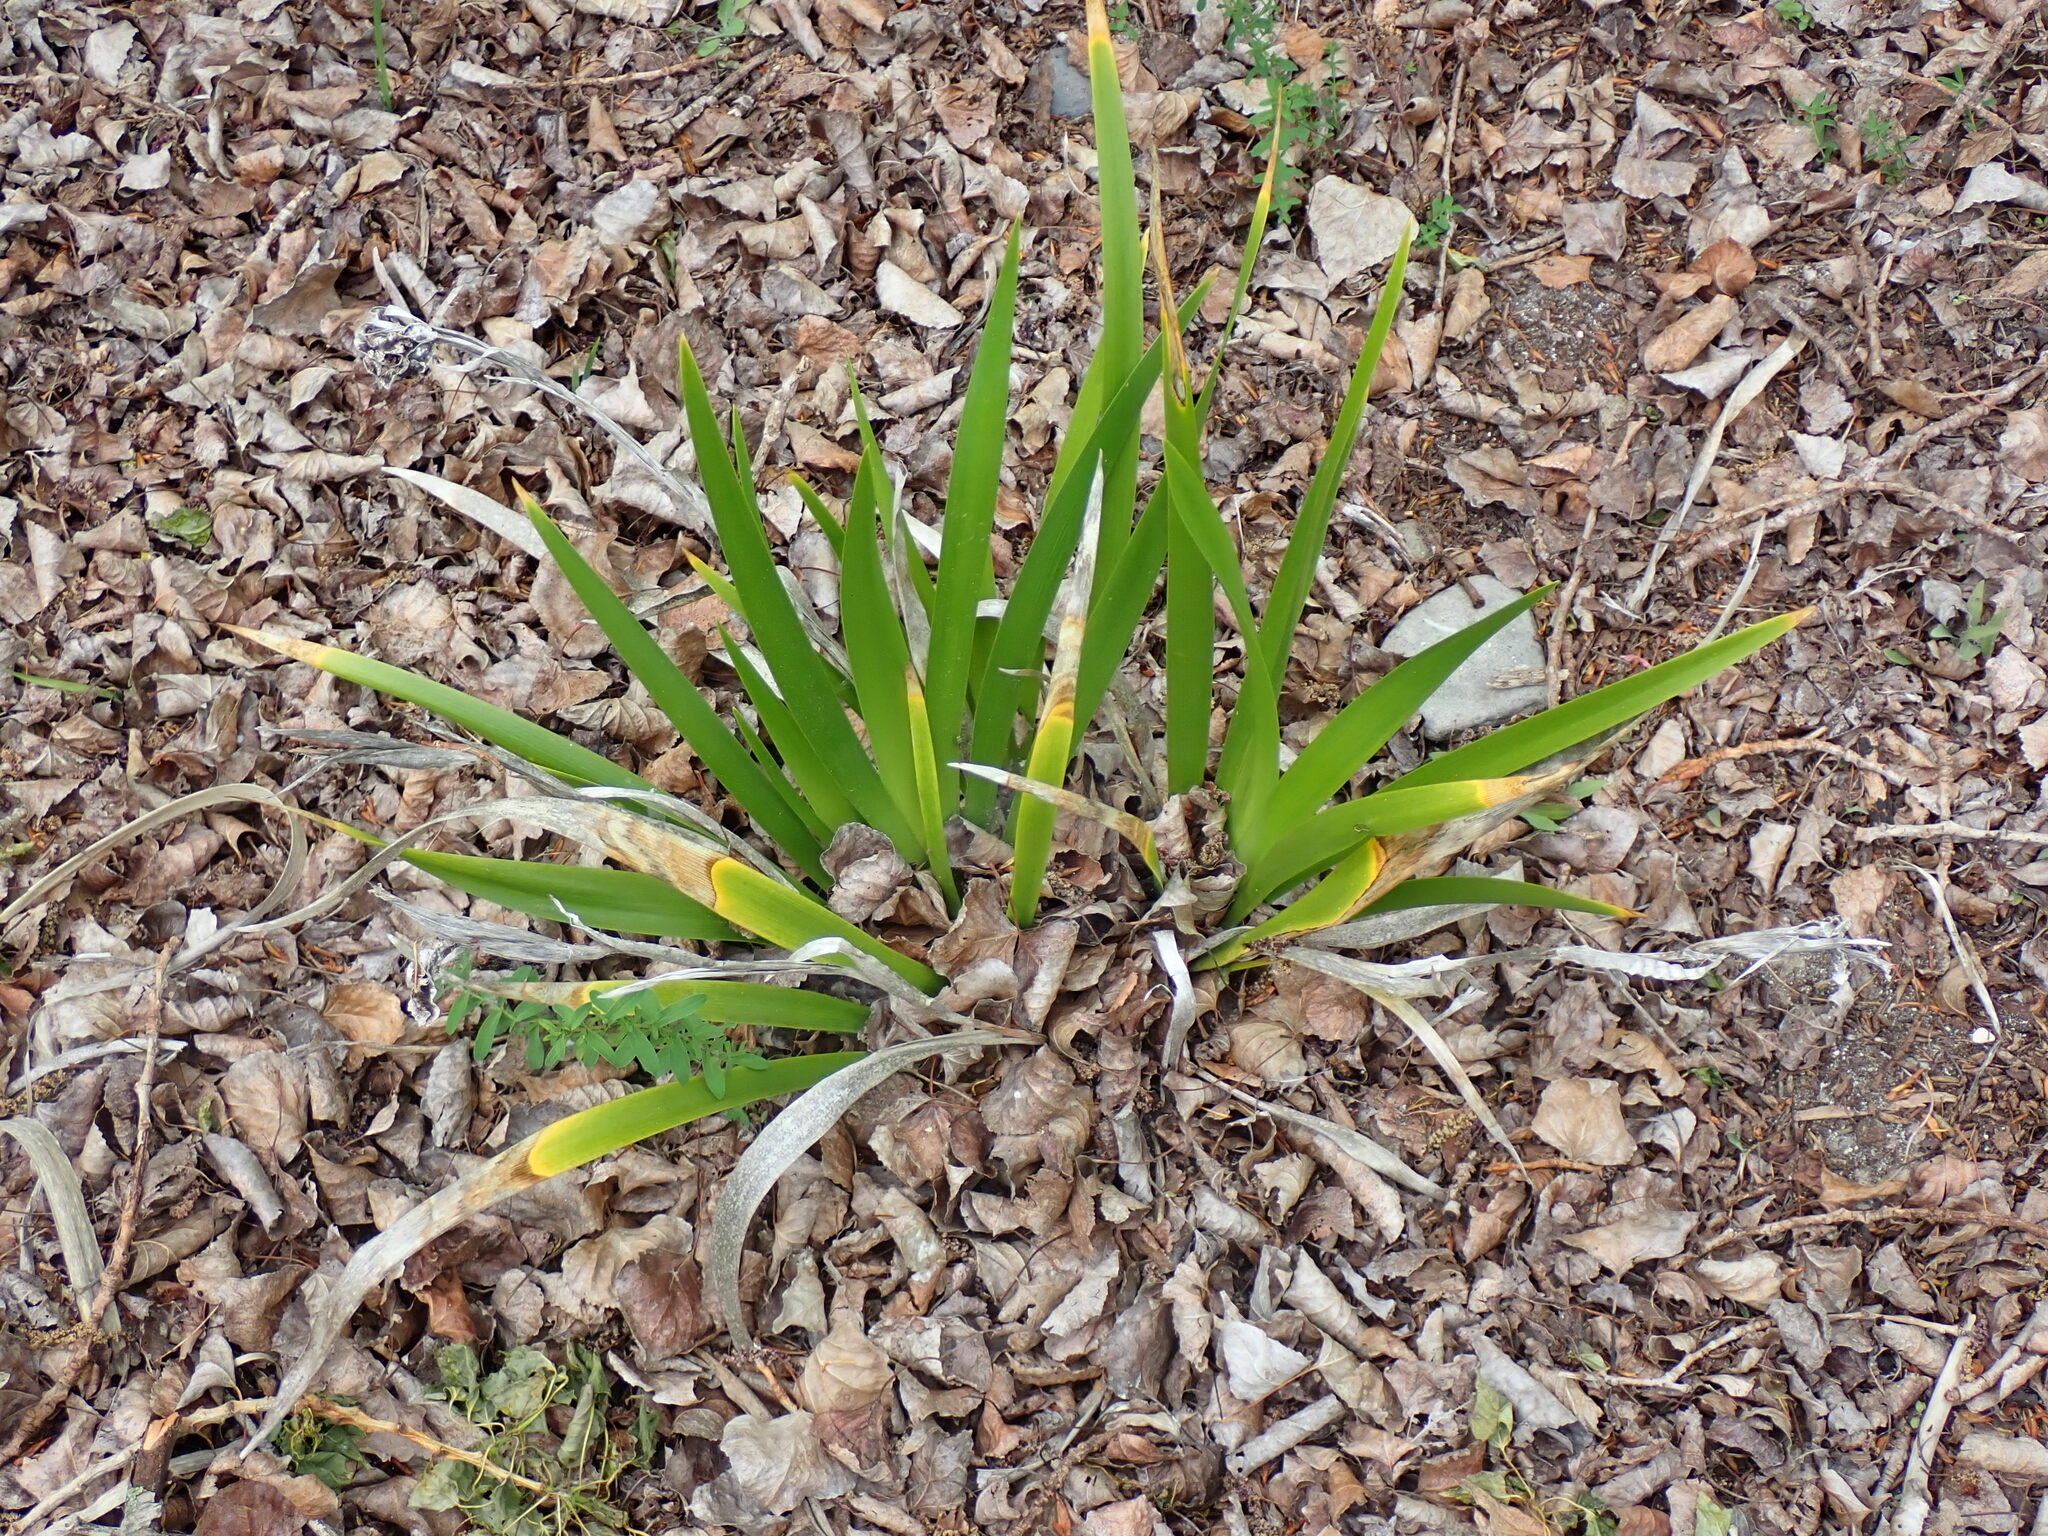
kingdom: Plantae
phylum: Tracheophyta
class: Liliopsida
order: Asparagales
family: Iridaceae
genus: Iris
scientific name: Iris foetidissima
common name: Stinking iris
